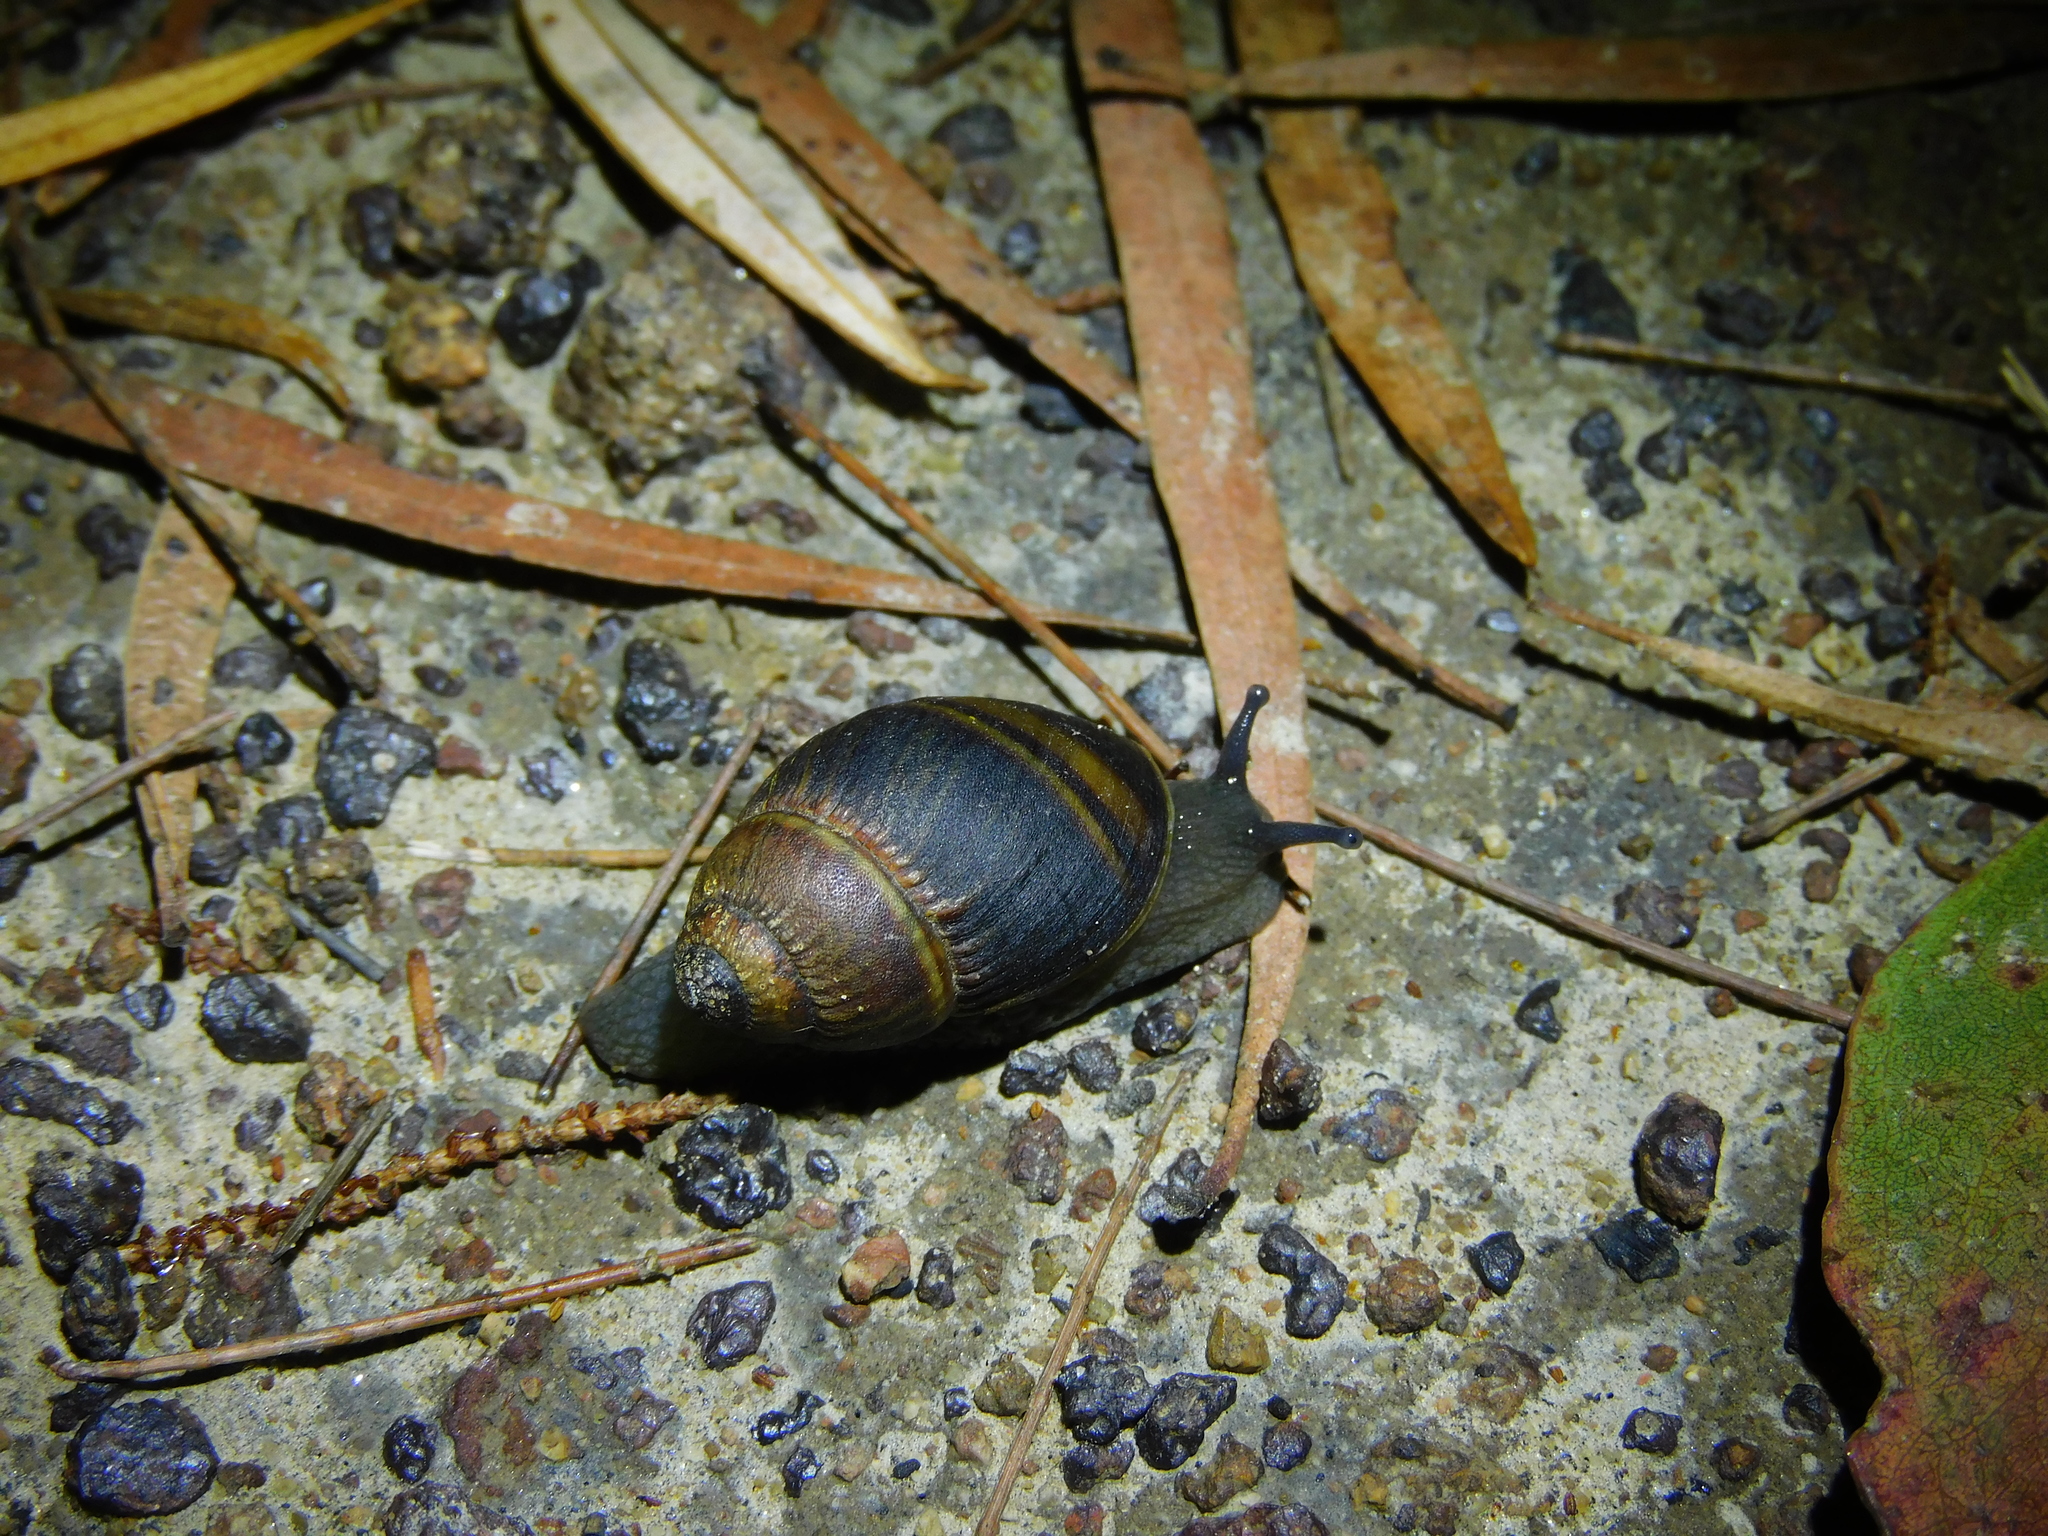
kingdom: Animalia
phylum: Mollusca
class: Gastropoda
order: Stylommatophora
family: Caryodidae
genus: Caryodes
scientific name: Caryodes dufresnii
